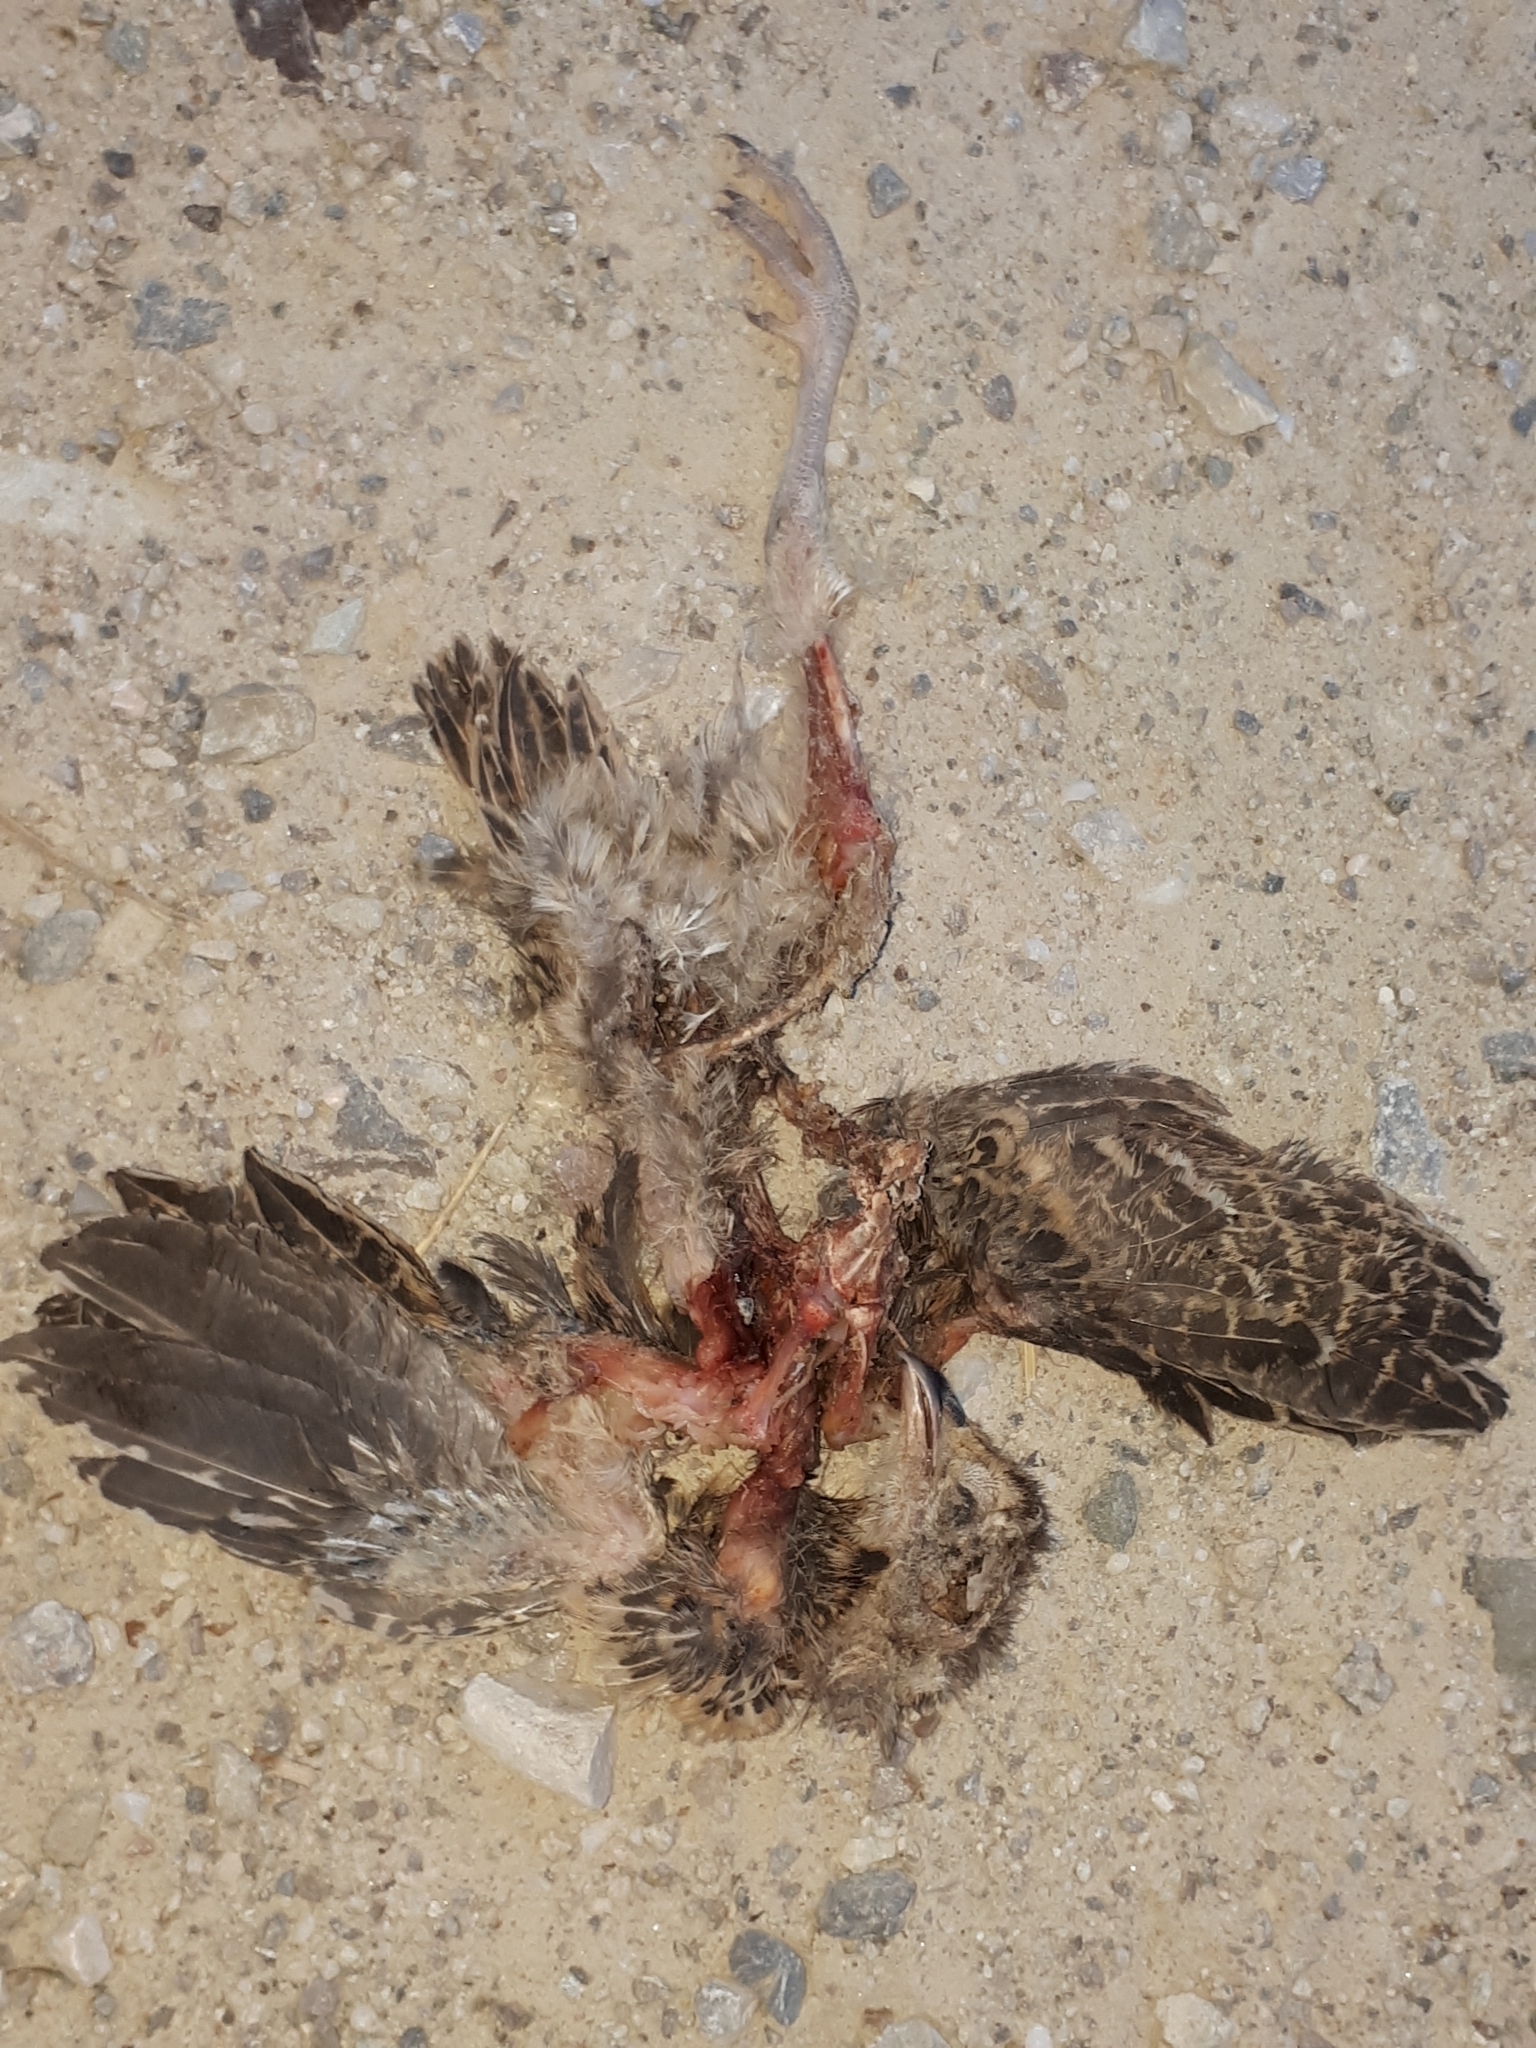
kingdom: Animalia
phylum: Chordata
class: Aves
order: Galliformes
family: Phasianidae
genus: Phasianus
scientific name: Phasianus colchicus
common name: Common pheasant
